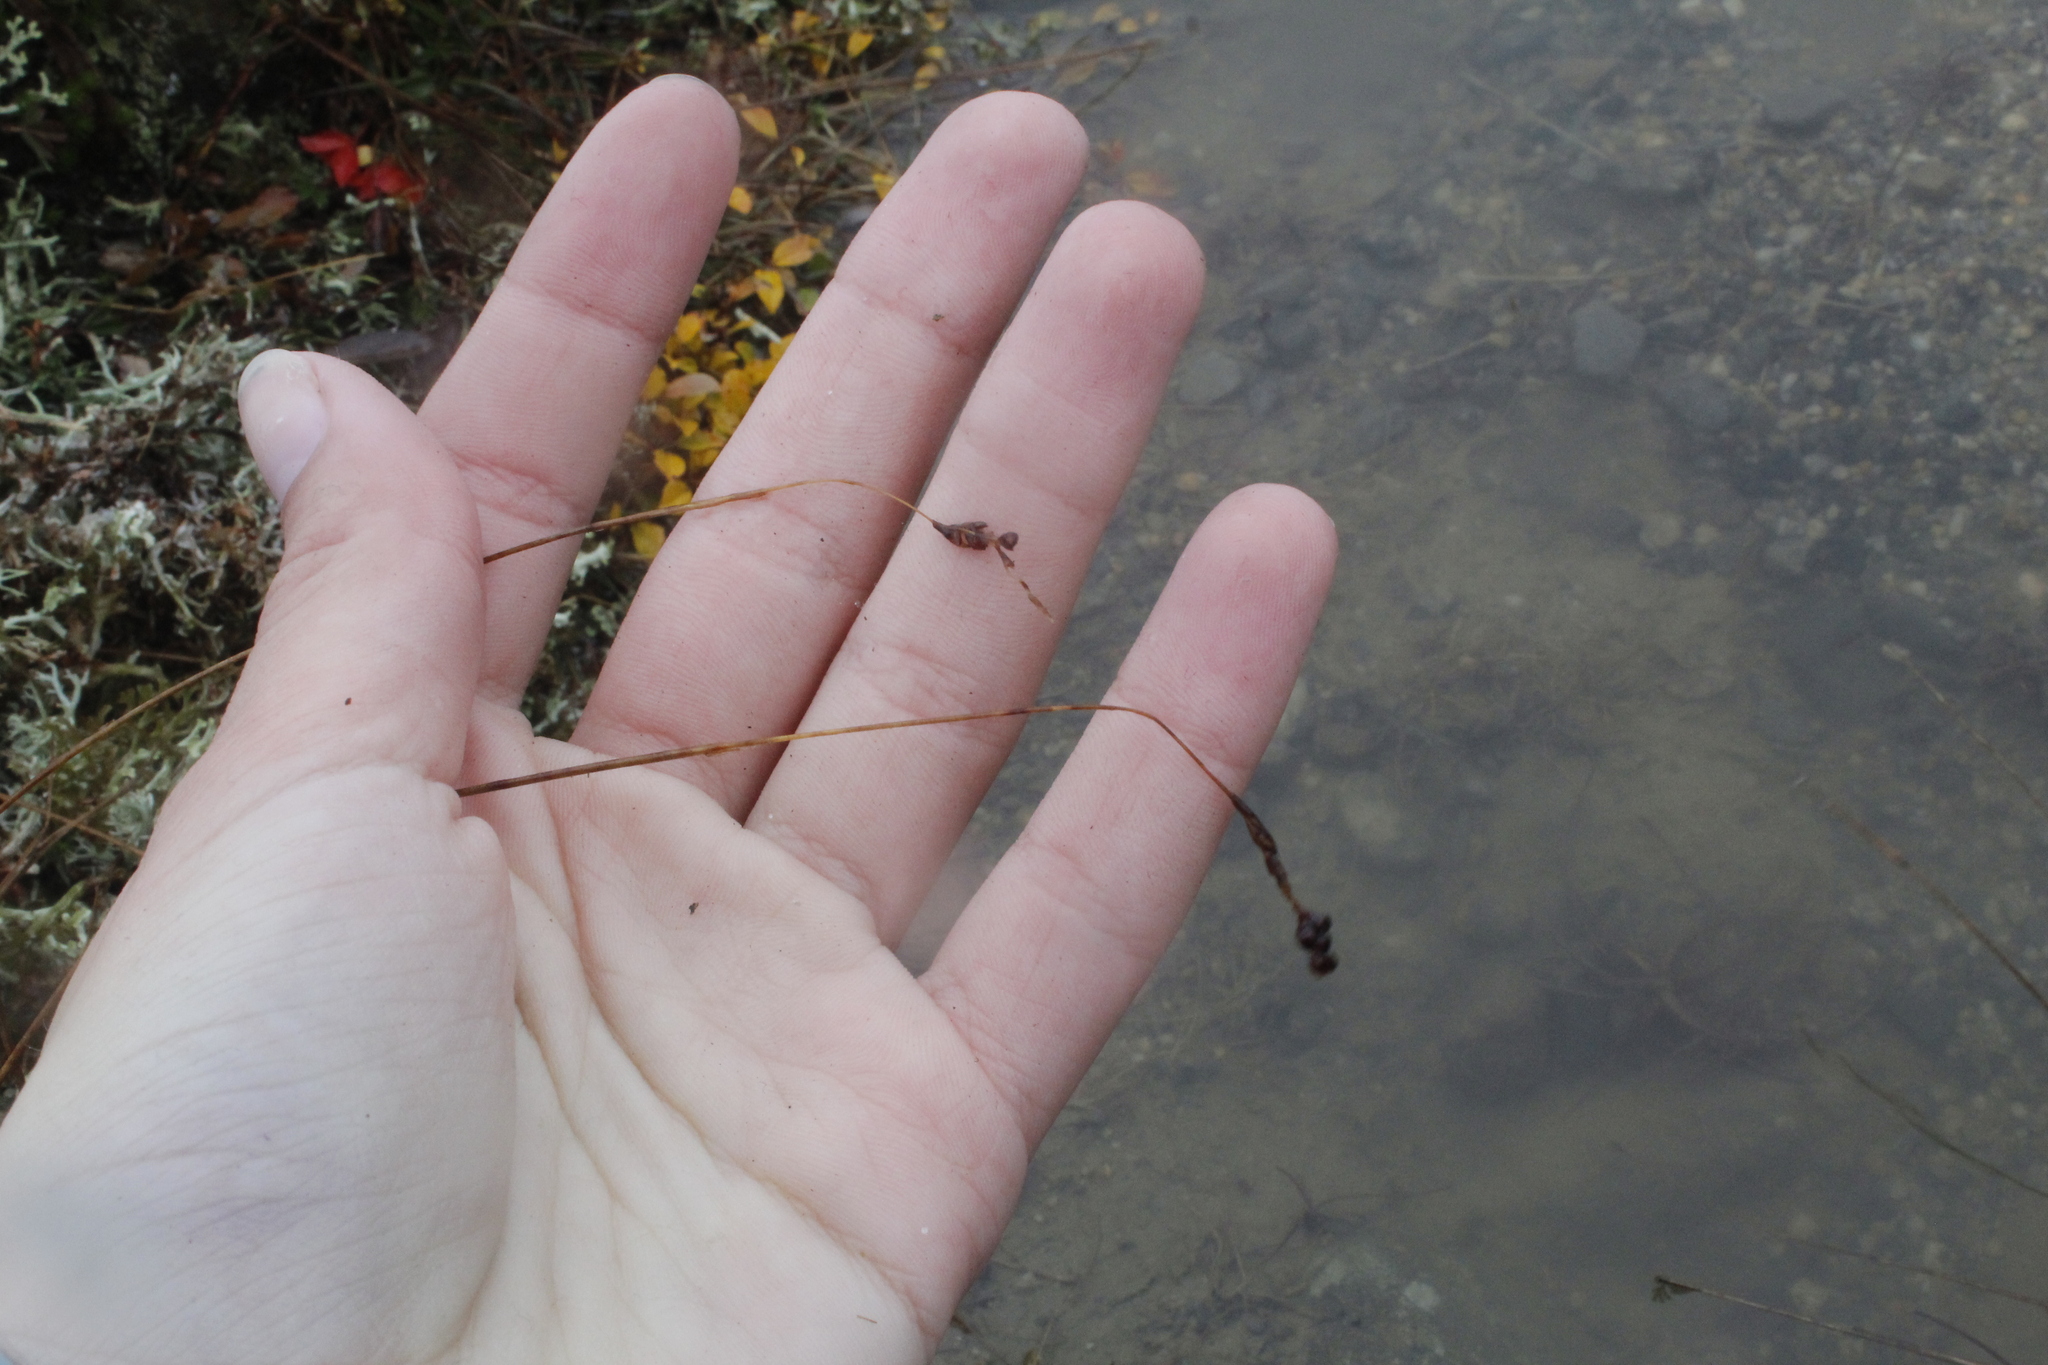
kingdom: Plantae
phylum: Tracheophyta
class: Liliopsida
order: Poales
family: Juncaceae
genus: Luzula
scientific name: Luzula spicata
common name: Spiked wood-rush
